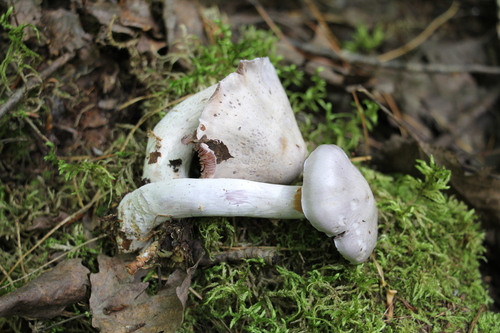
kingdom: Fungi
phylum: Basidiomycota
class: Agaricomycetes
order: Agaricales
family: Cortinariaceae
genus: Cortinarius
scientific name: Cortinarius alboviolaceus
